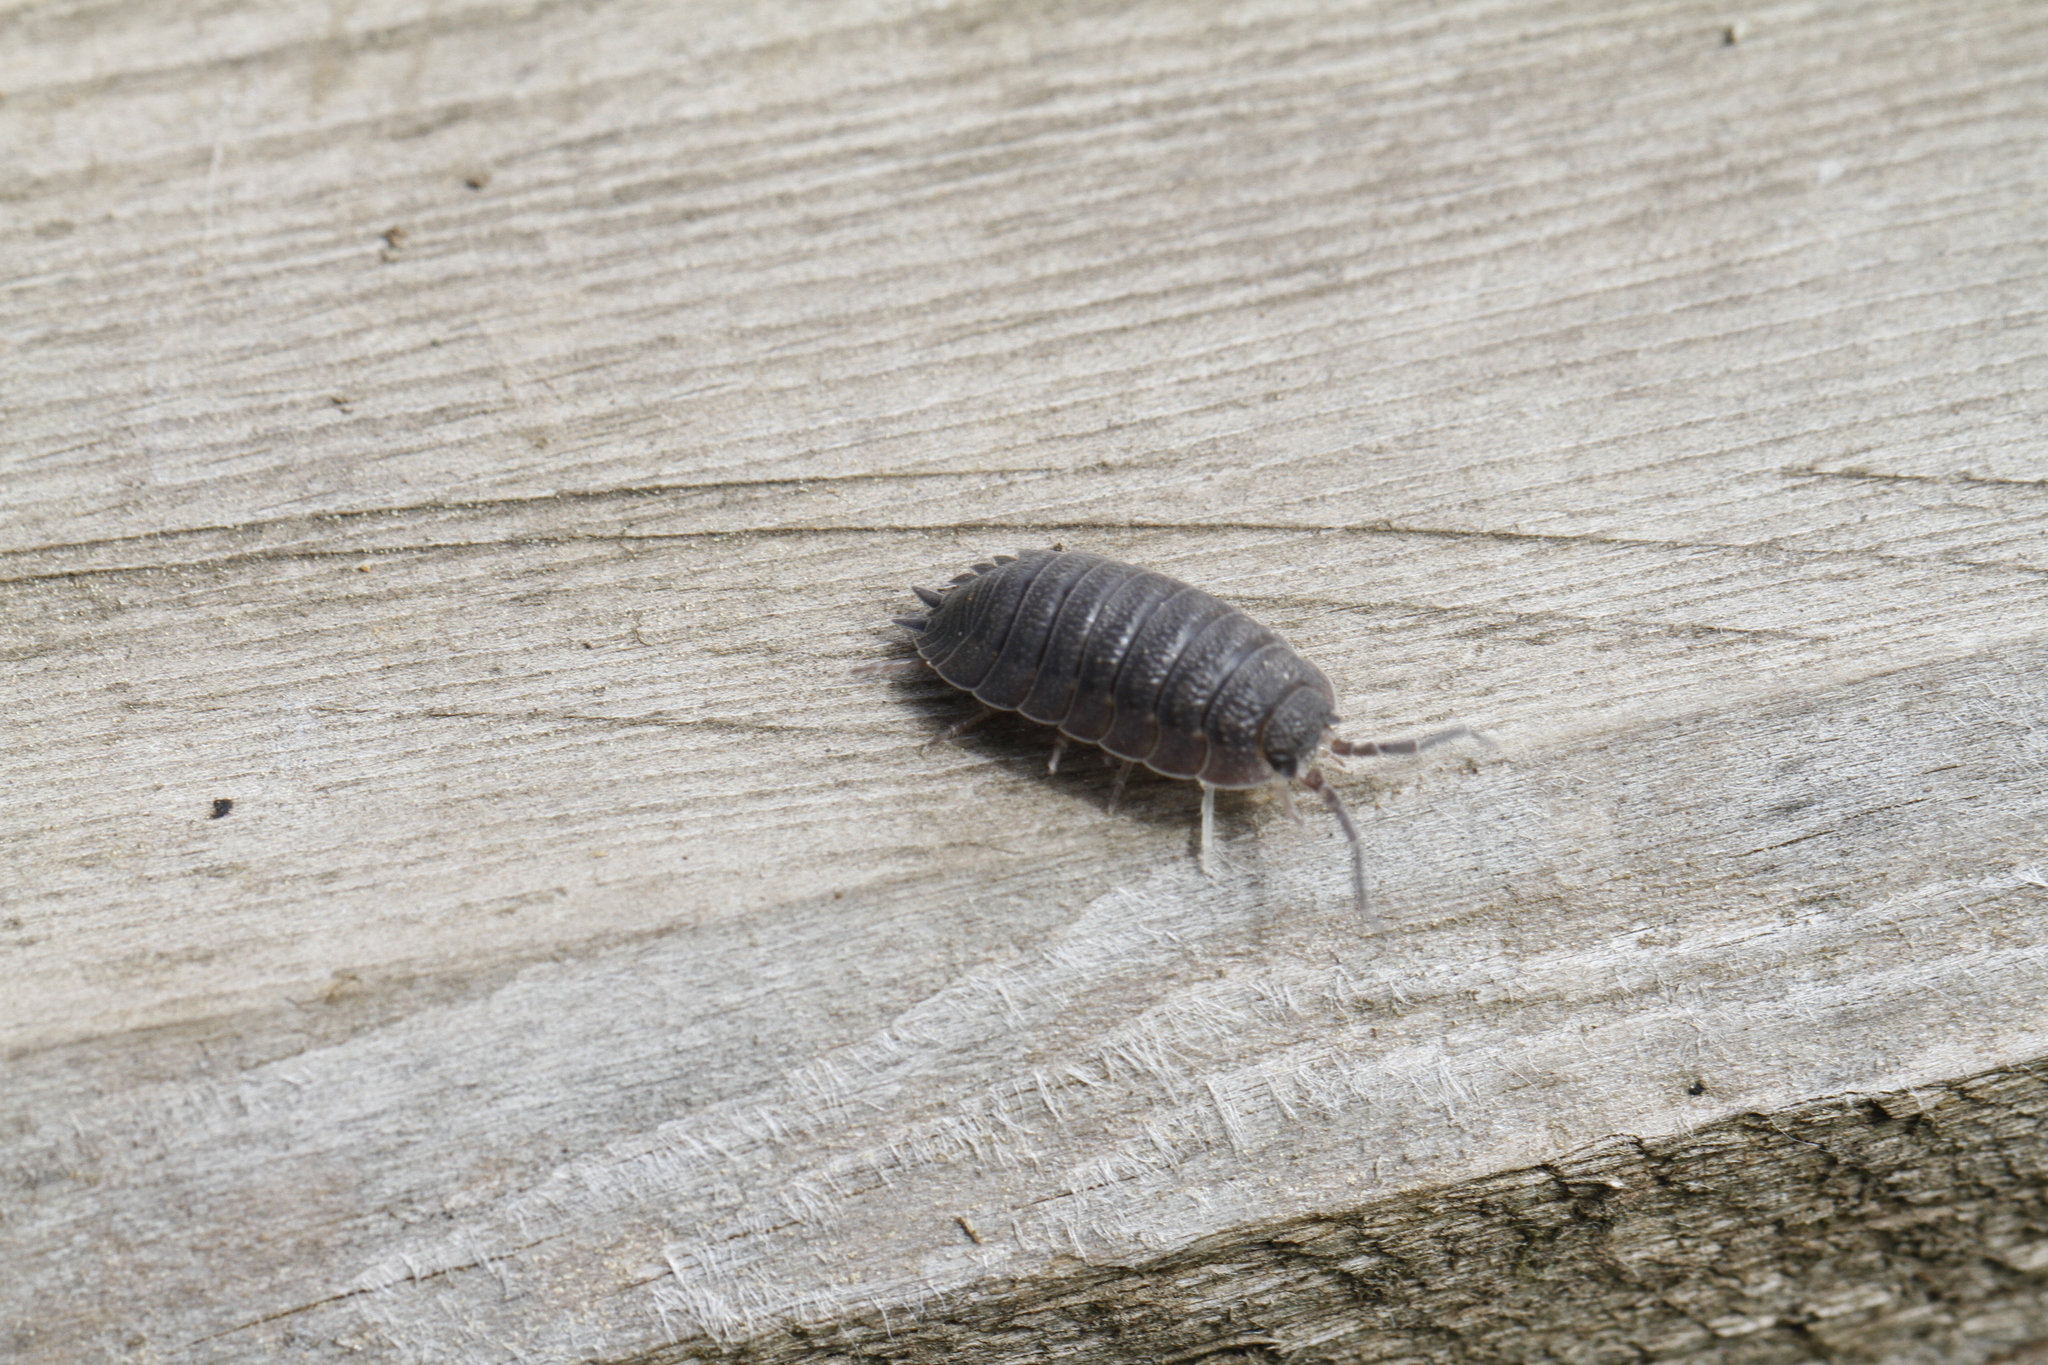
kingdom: Animalia
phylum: Arthropoda
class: Malacostraca
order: Isopoda
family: Porcellionidae
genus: Porcellio
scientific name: Porcellio scaber
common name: Common rough woodlouse
